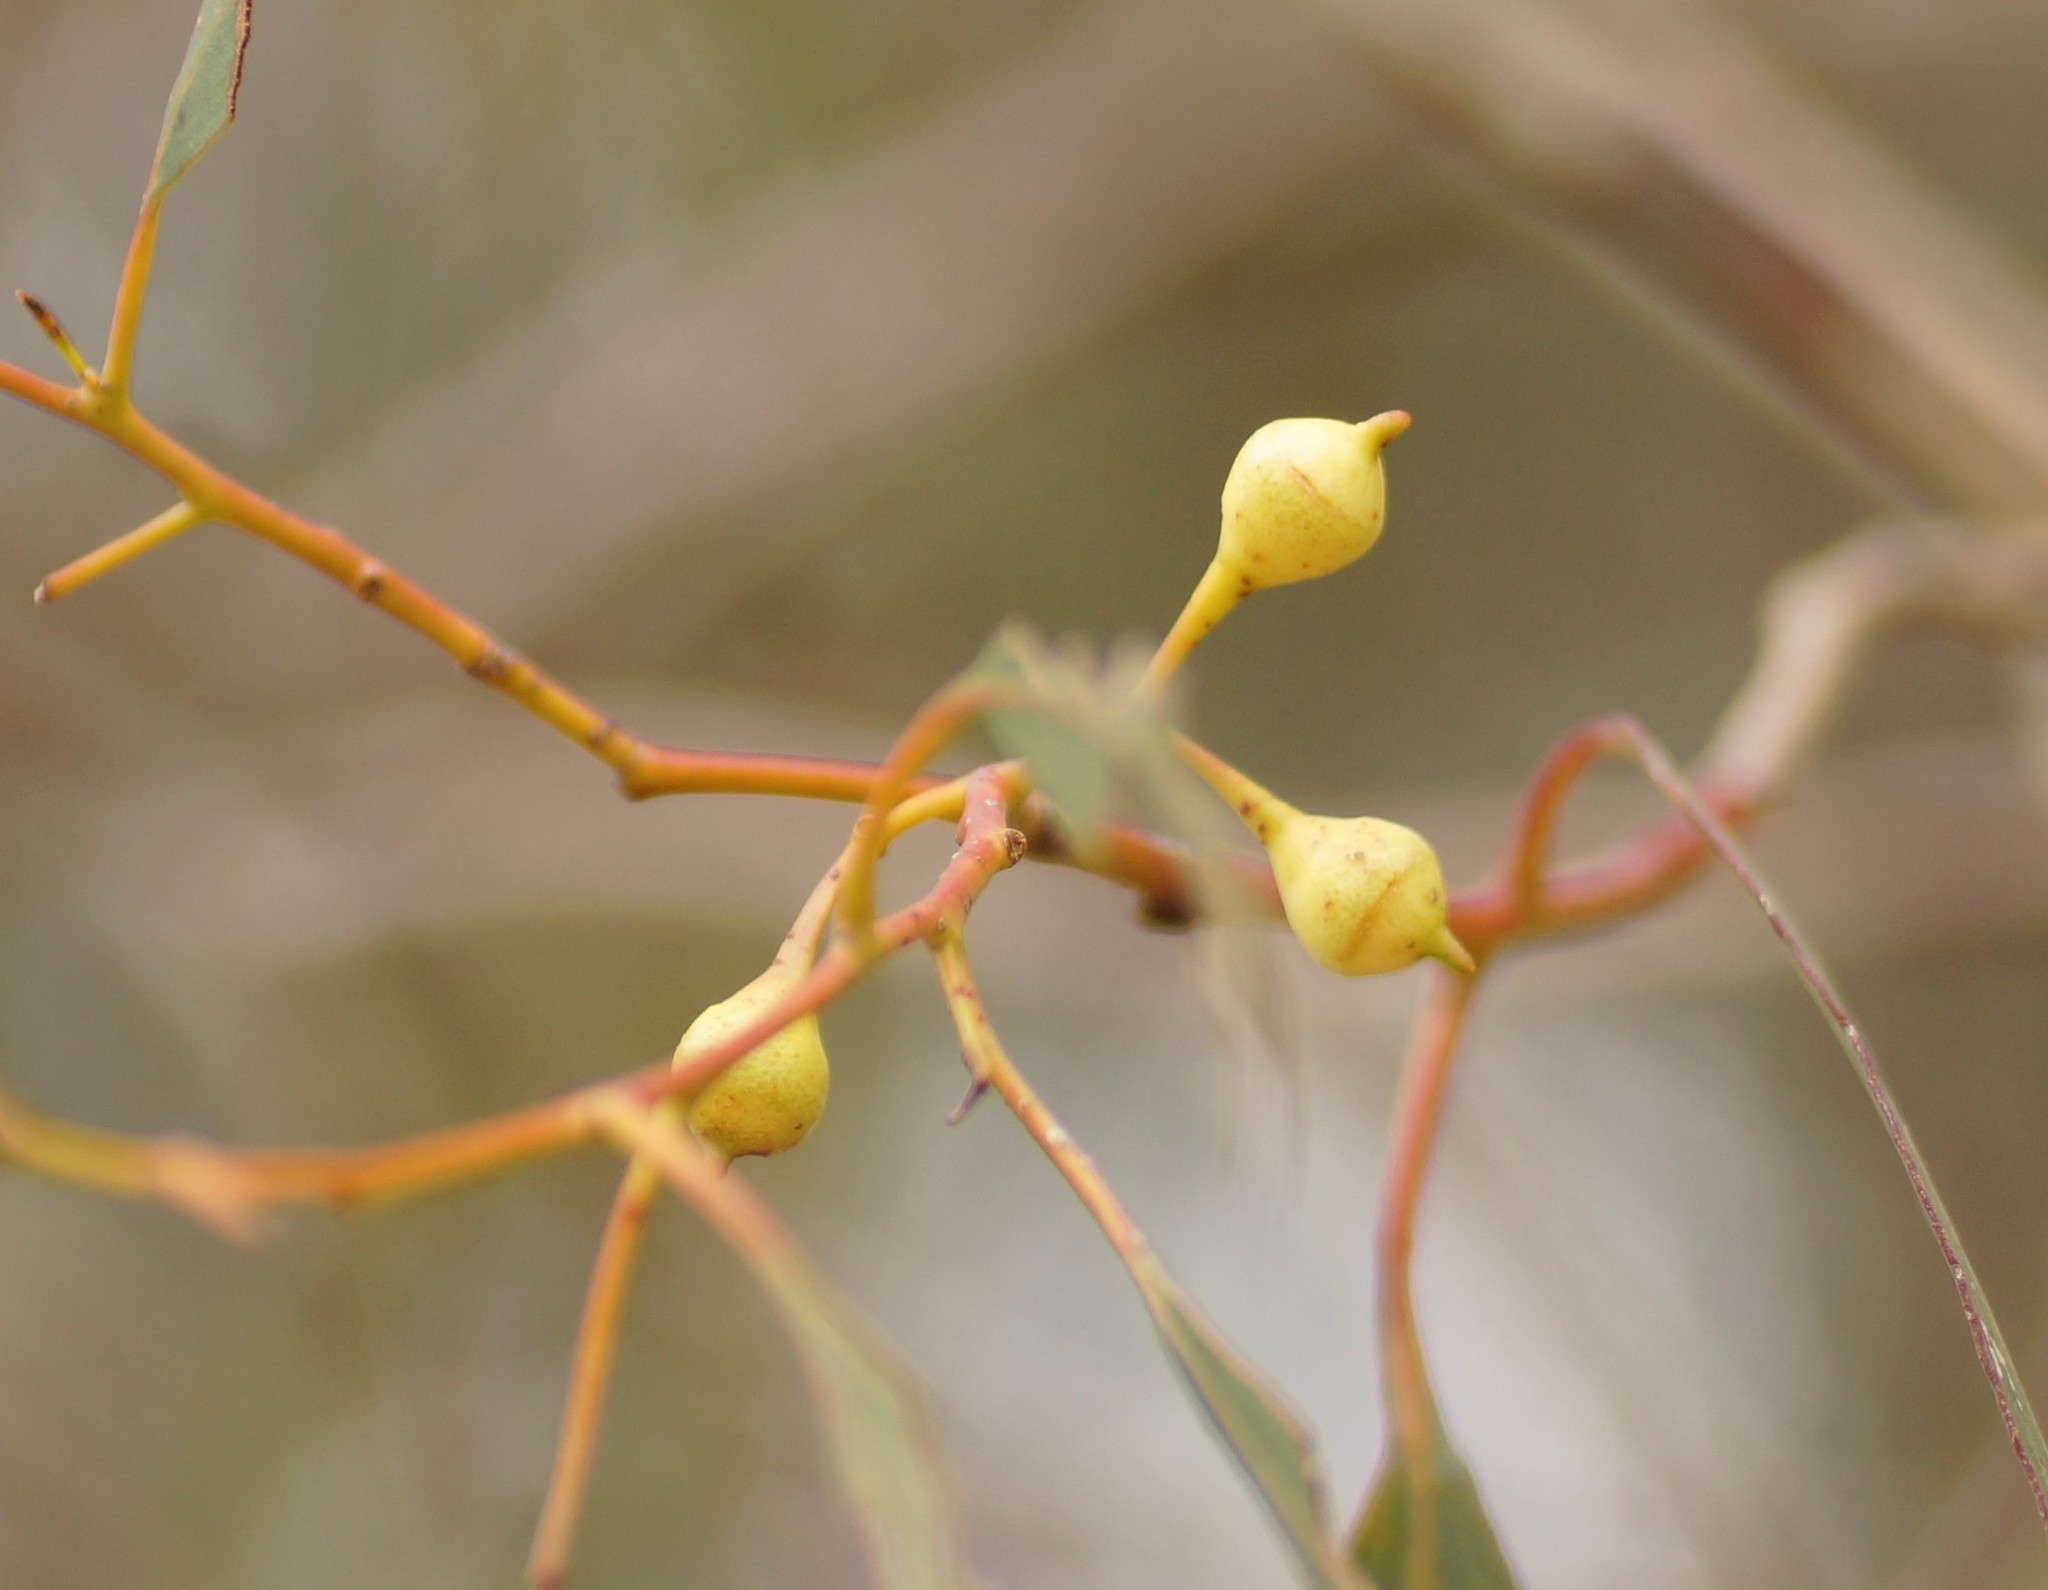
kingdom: Plantae
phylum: Tracheophyta
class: Magnoliopsida
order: Myrtales
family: Myrtaceae
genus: Eucalyptus
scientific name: Eucalyptus leucoxylon
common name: Blue gum
